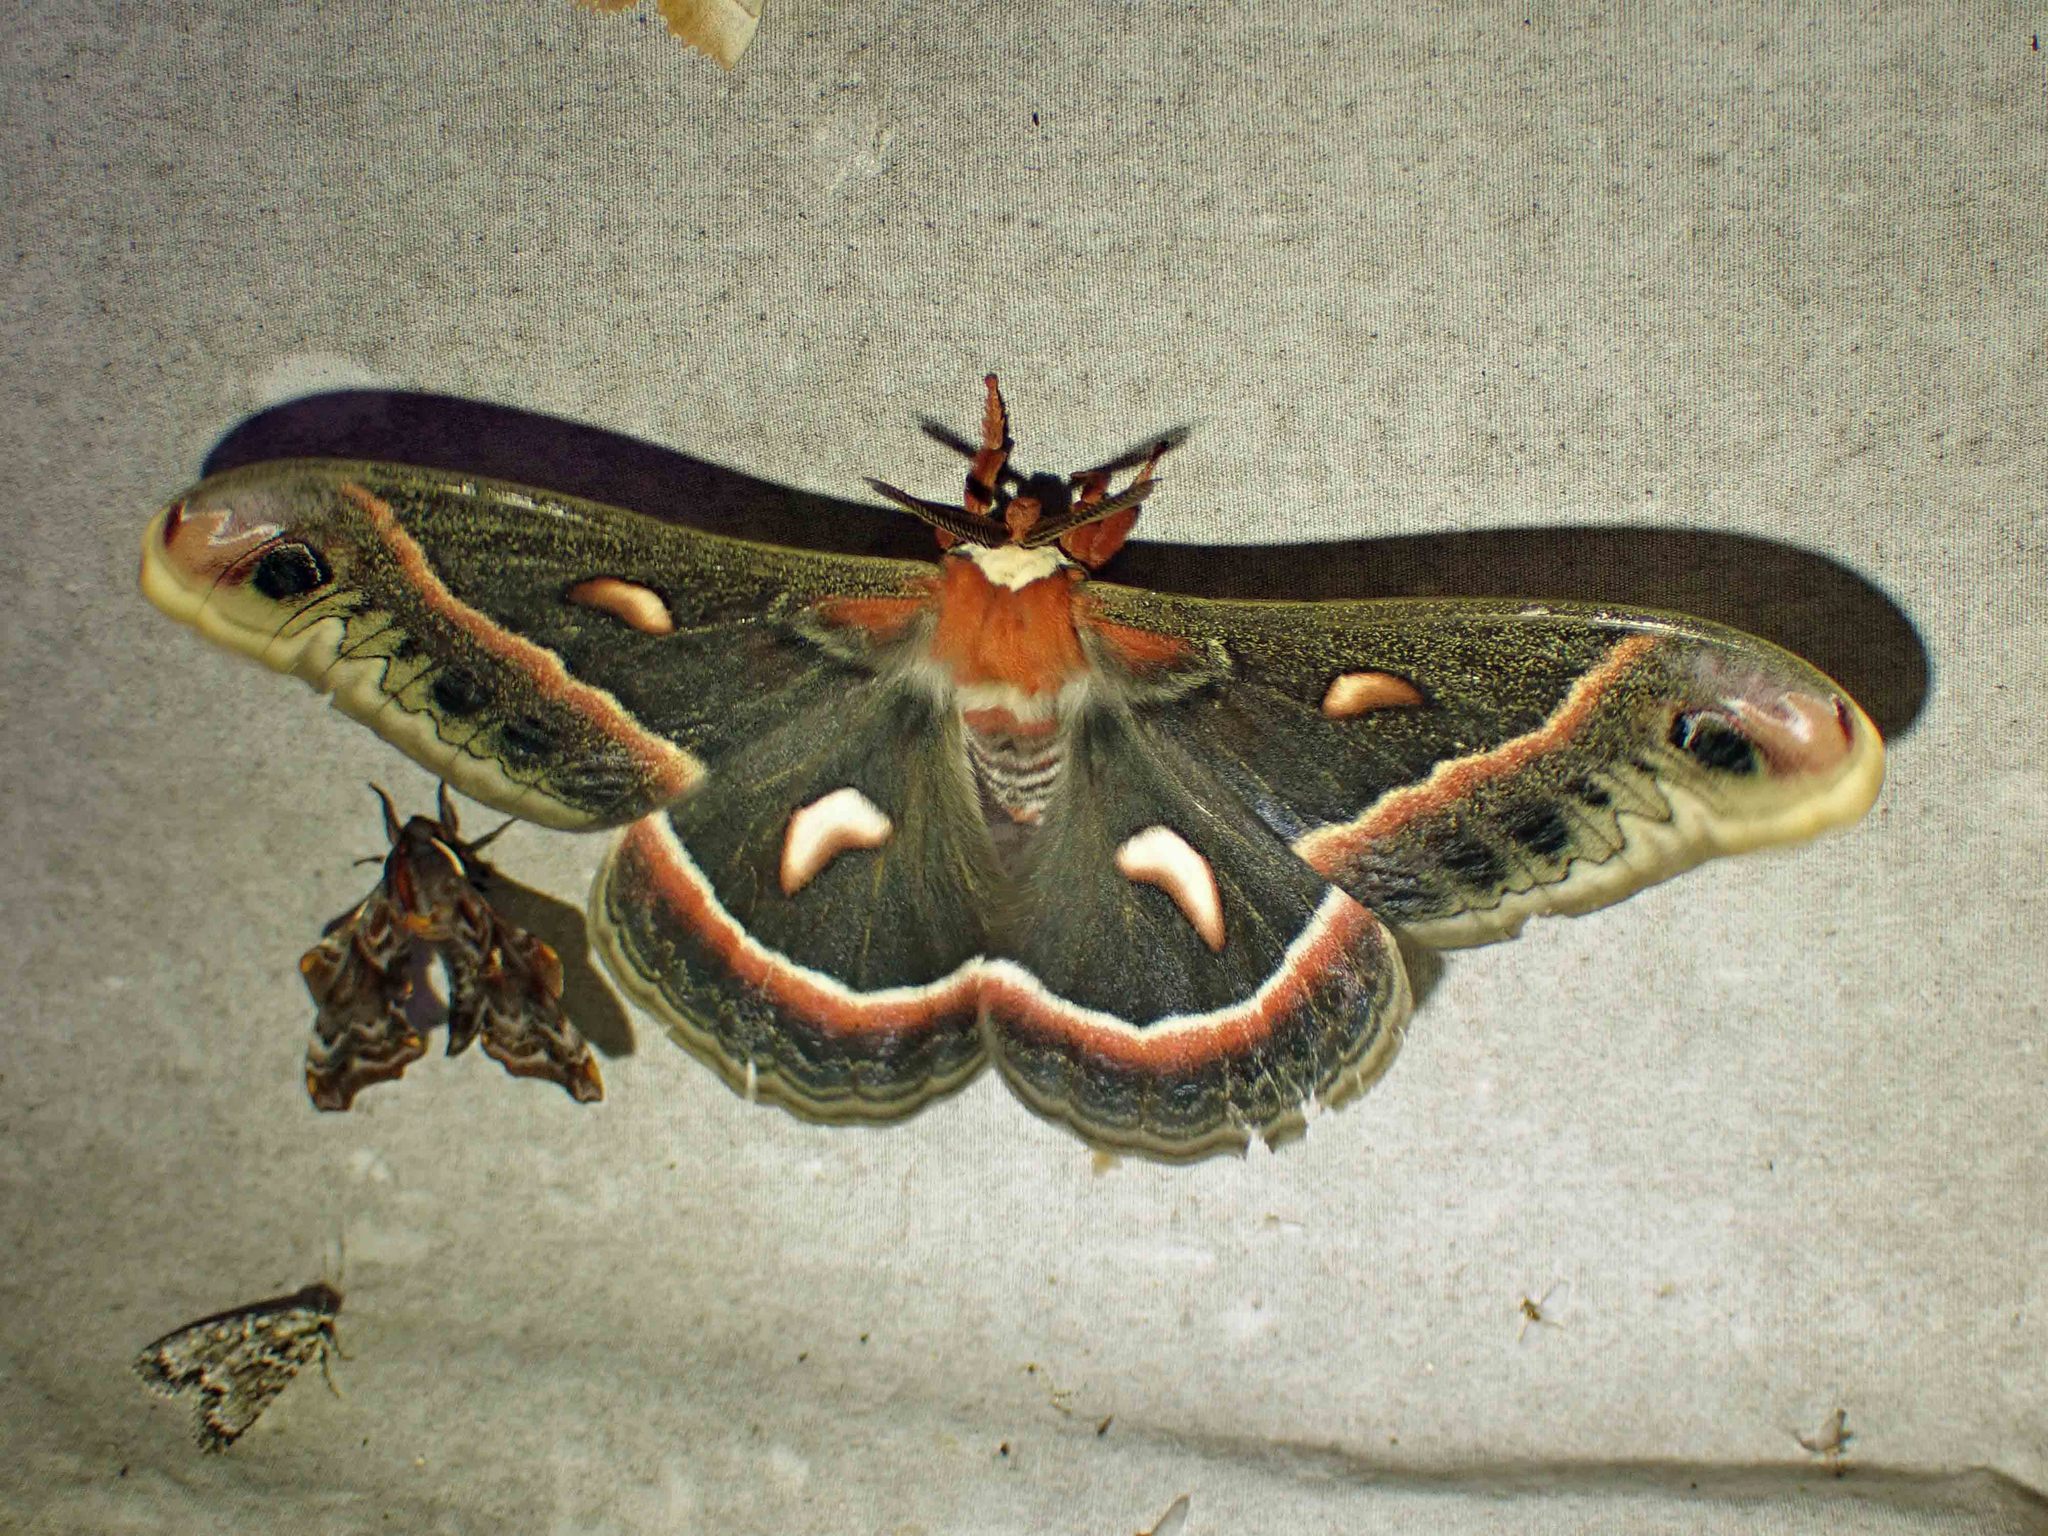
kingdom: Animalia
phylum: Arthropoda
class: Insecta
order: Lepidoptera
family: Saturniidae
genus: Hyalophora
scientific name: Hyalophora cecropia
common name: Cecropia silkmoth
